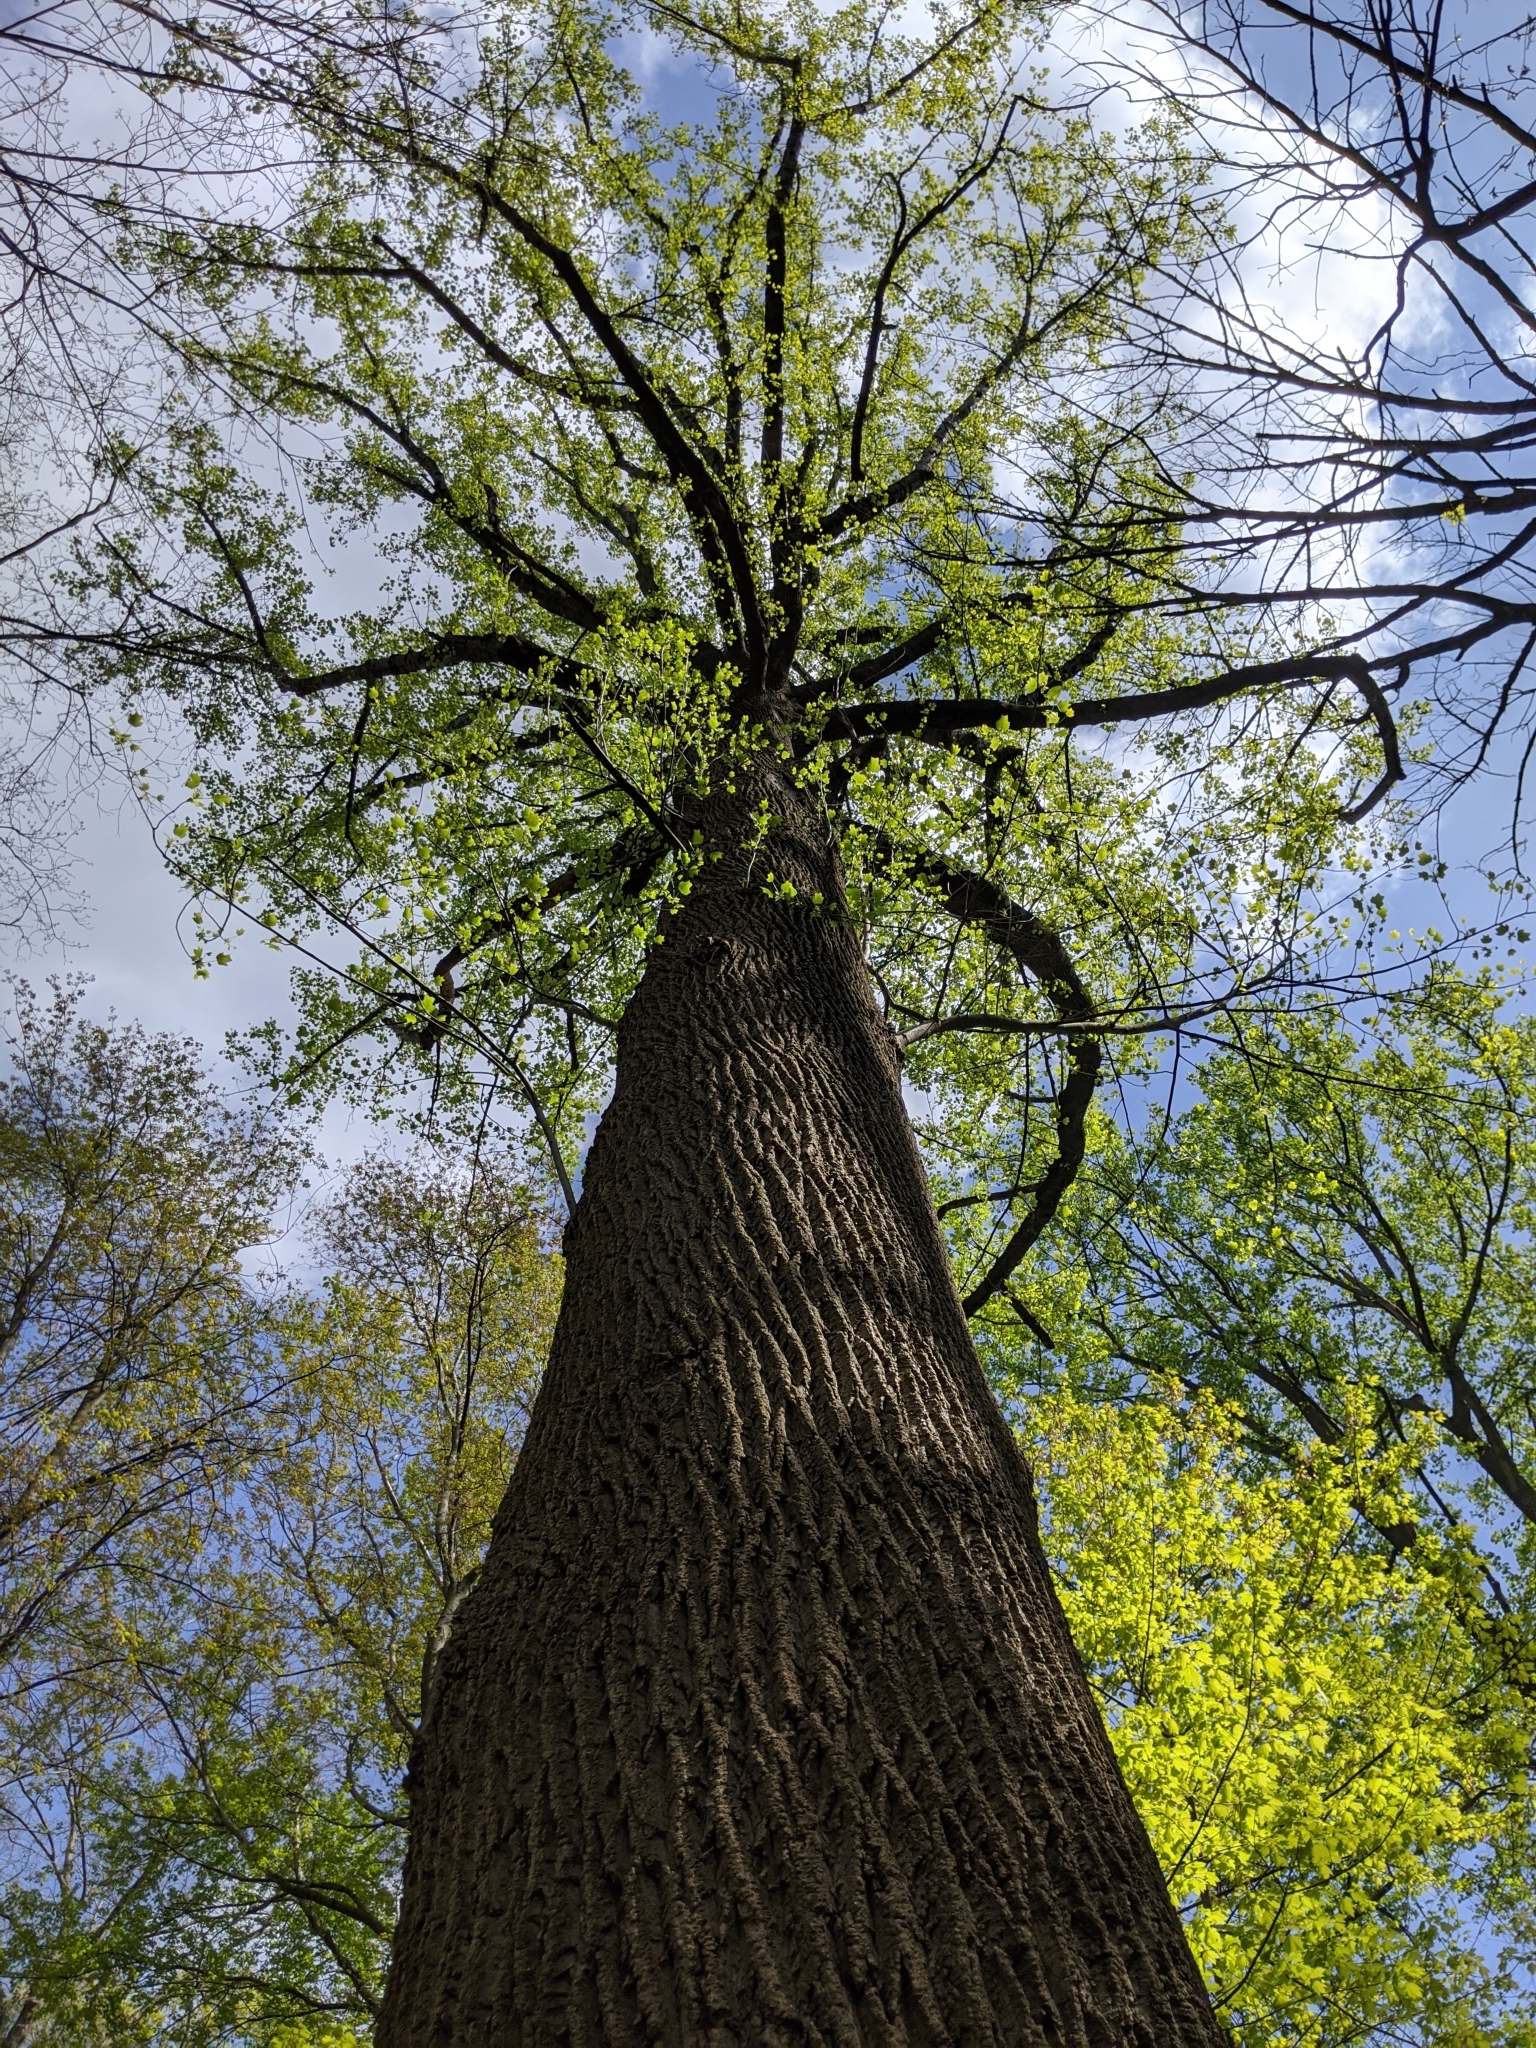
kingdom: Plantae
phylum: Tracheophyta
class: Magnoliopsida
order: Magnoliales
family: Magnoliaceae
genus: Liriodendron
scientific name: Liriodendron tulipifera
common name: Tulip tree
